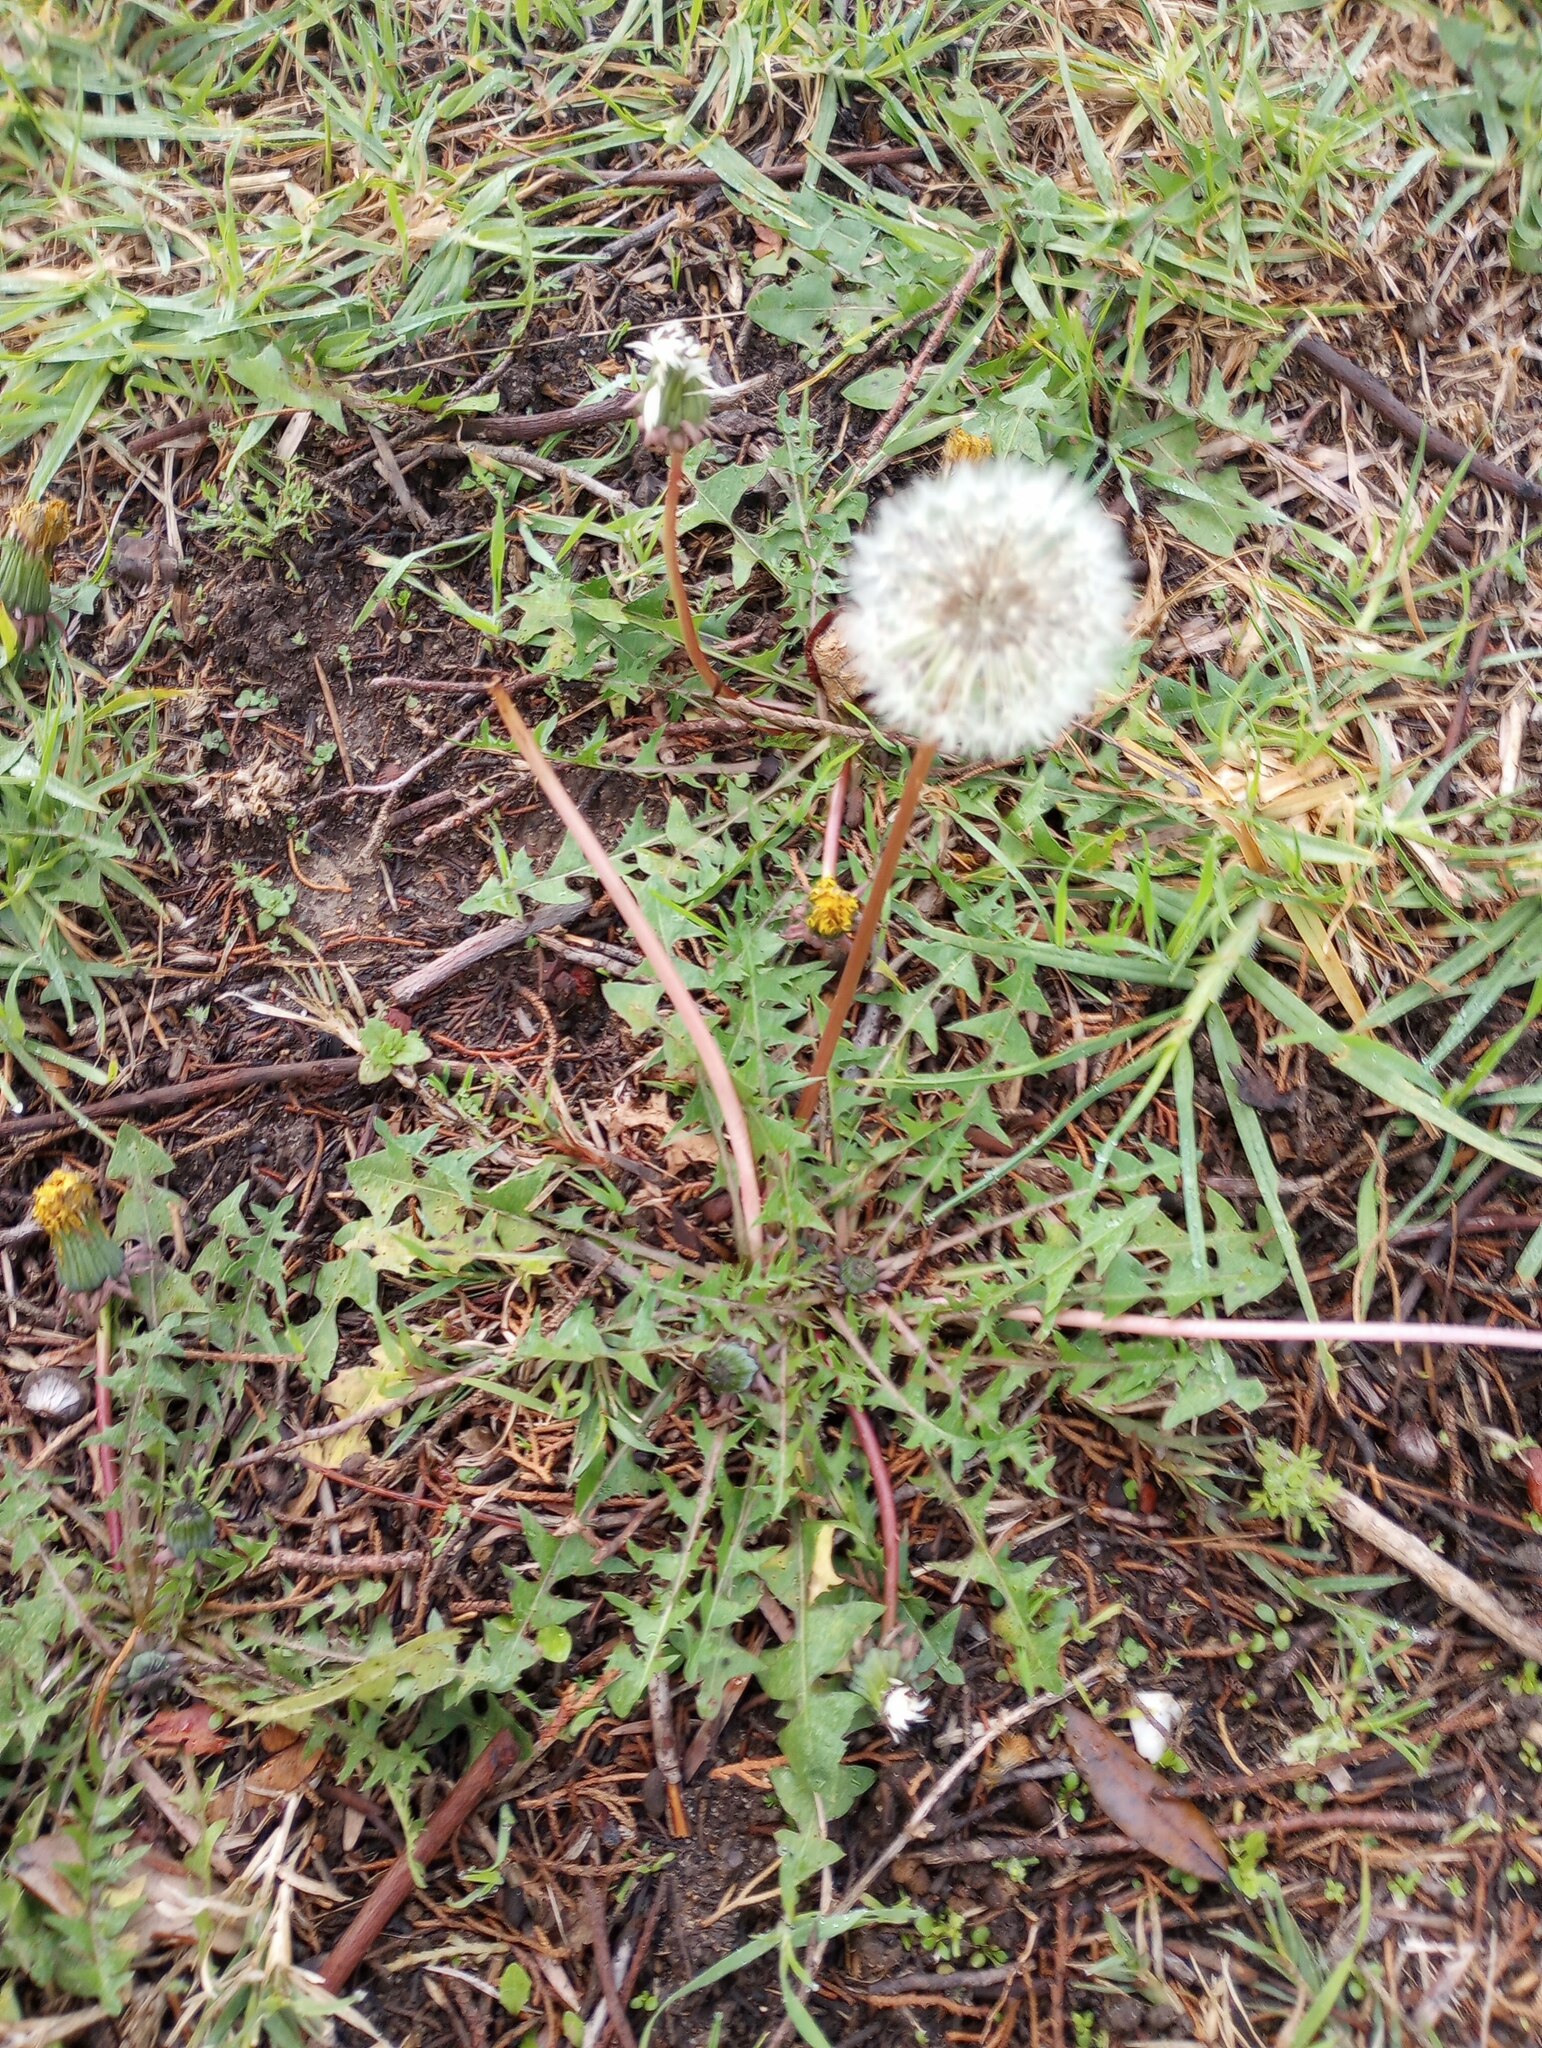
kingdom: Plantae
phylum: Tracheophyta
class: Magnoliopsida
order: Asterales
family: Asteraceae
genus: Taraxacum
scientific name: Taraxacum officinale
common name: Common dandelion
